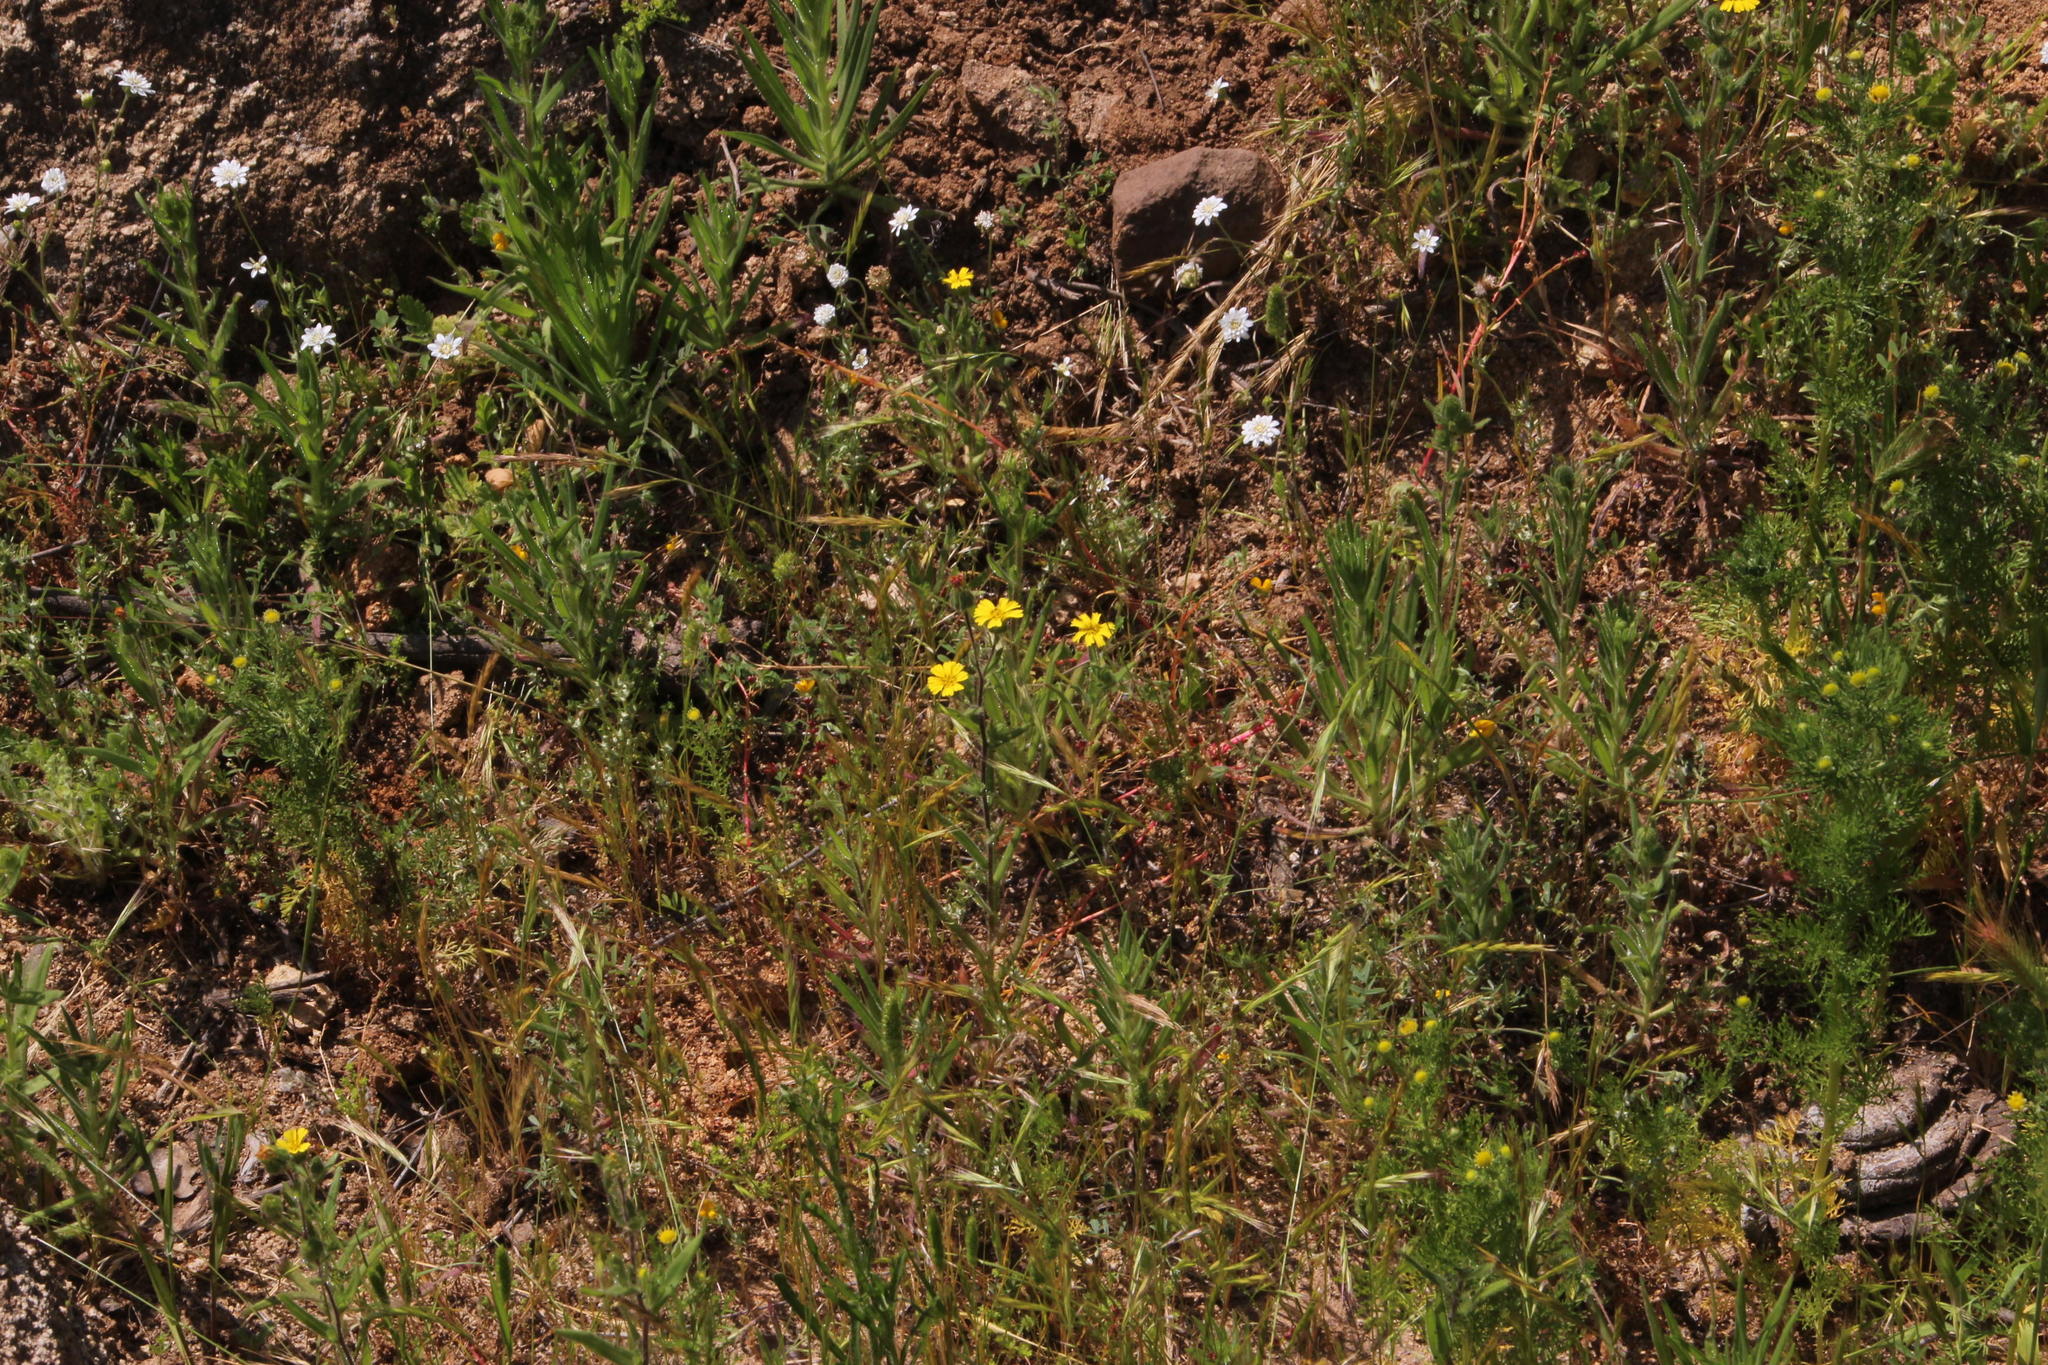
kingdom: Plantae
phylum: Tracheophyta
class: Magnoliopsida
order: Asterales
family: Asteraceae
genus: Madia
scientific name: Madia chilensis
